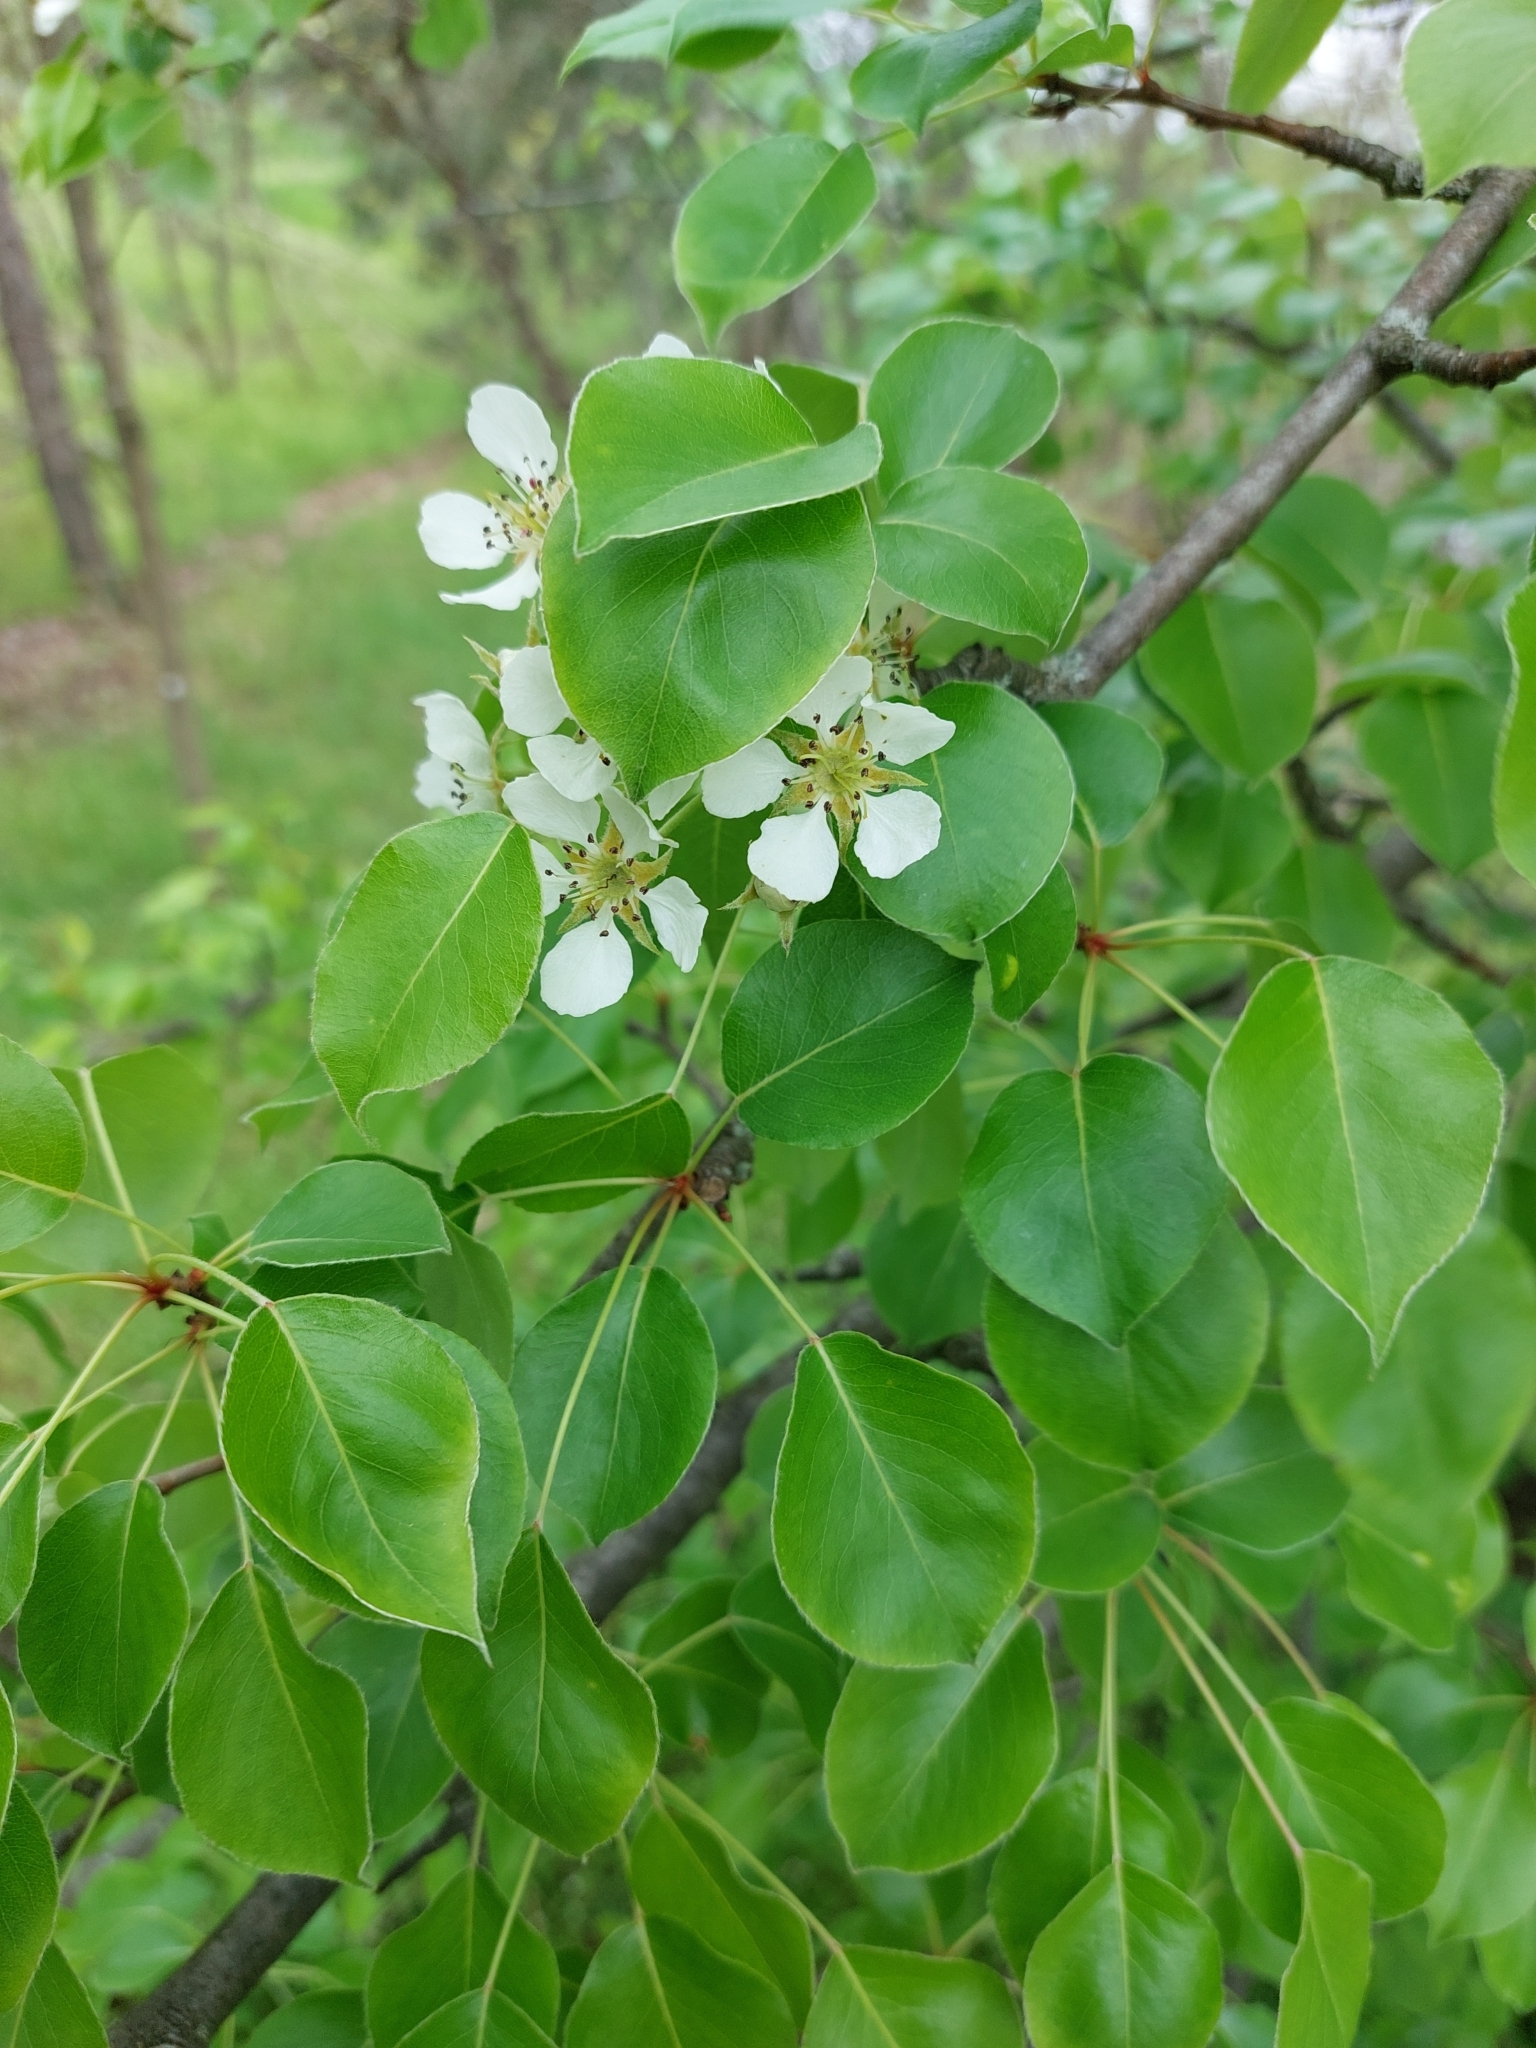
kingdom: Plantae
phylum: Tracheophyta
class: Magnoliopsida
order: Rosales
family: Rosaceae
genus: Pyrus
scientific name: Pyrus communis
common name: Pear
